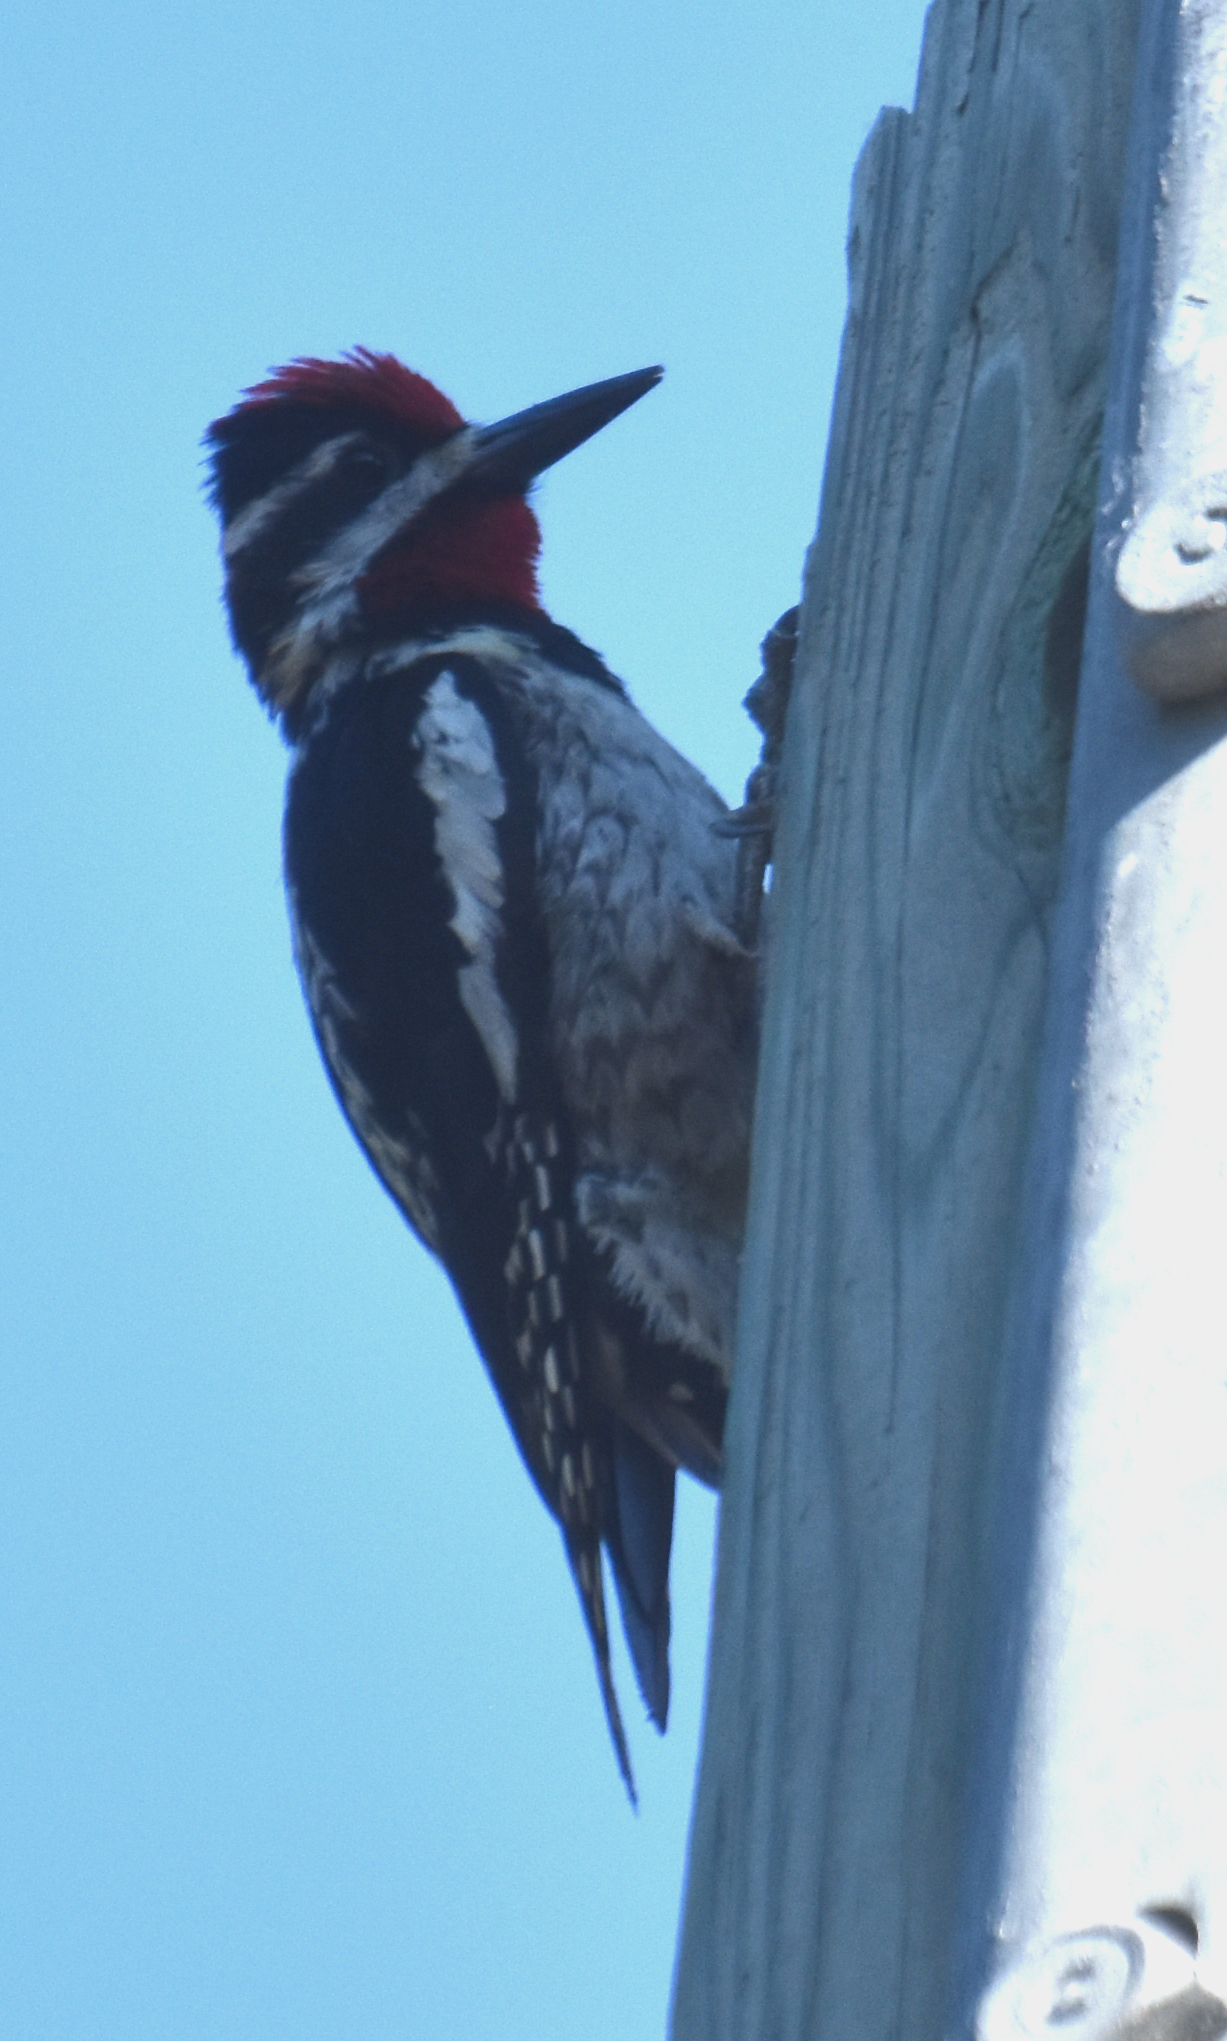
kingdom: Animalia
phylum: Chordata
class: Aves
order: Piciformes
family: Picidae
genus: Sphyrapicus
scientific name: Sphyrapicus nuchalis
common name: Red-naped sapsucker
